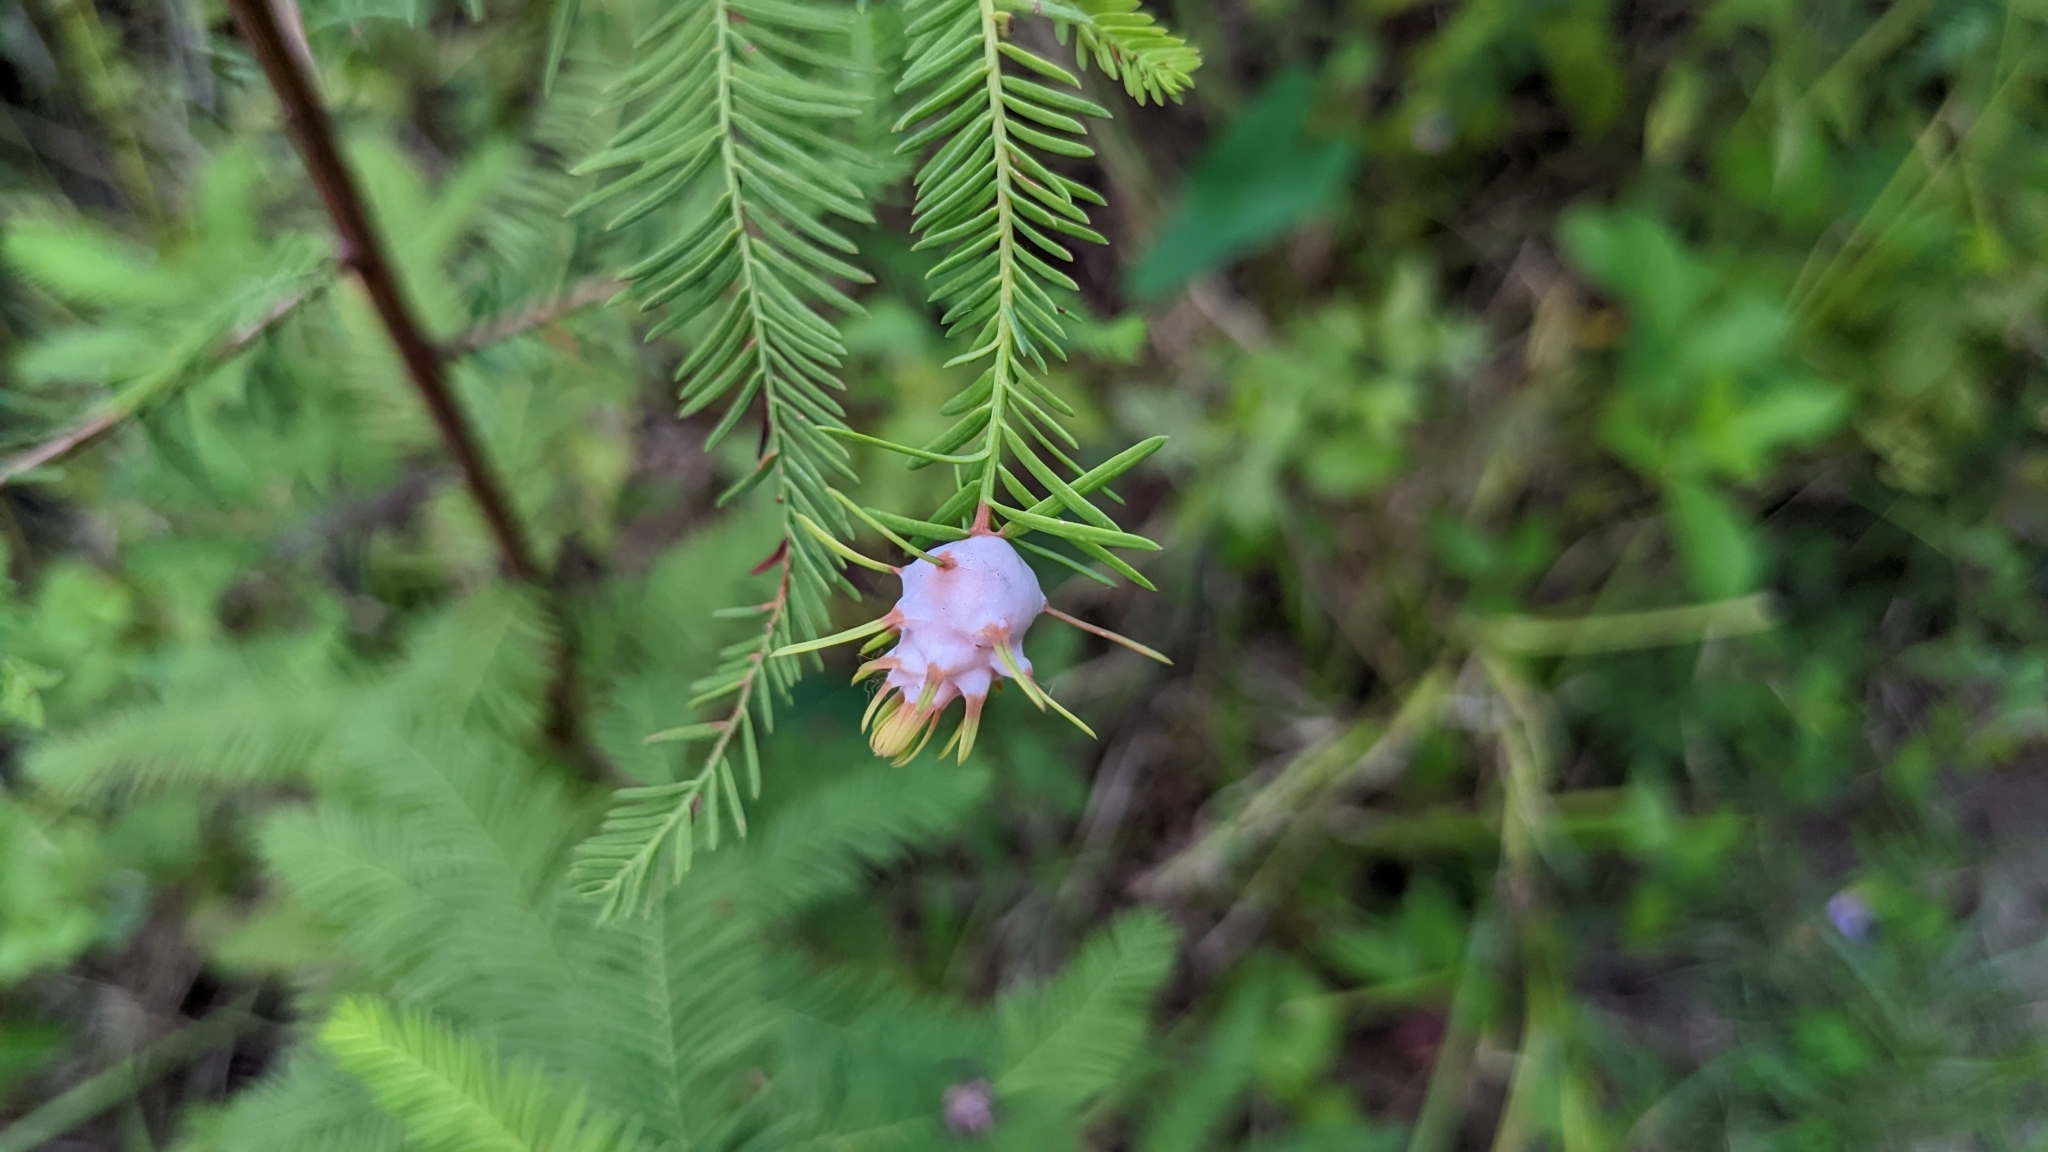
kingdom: Animalia
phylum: Arthropoda
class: Insecta
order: Diptera
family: Cecidomyiidae
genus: Taxodiomyia
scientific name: Taxodiomyia cupressiananassa
